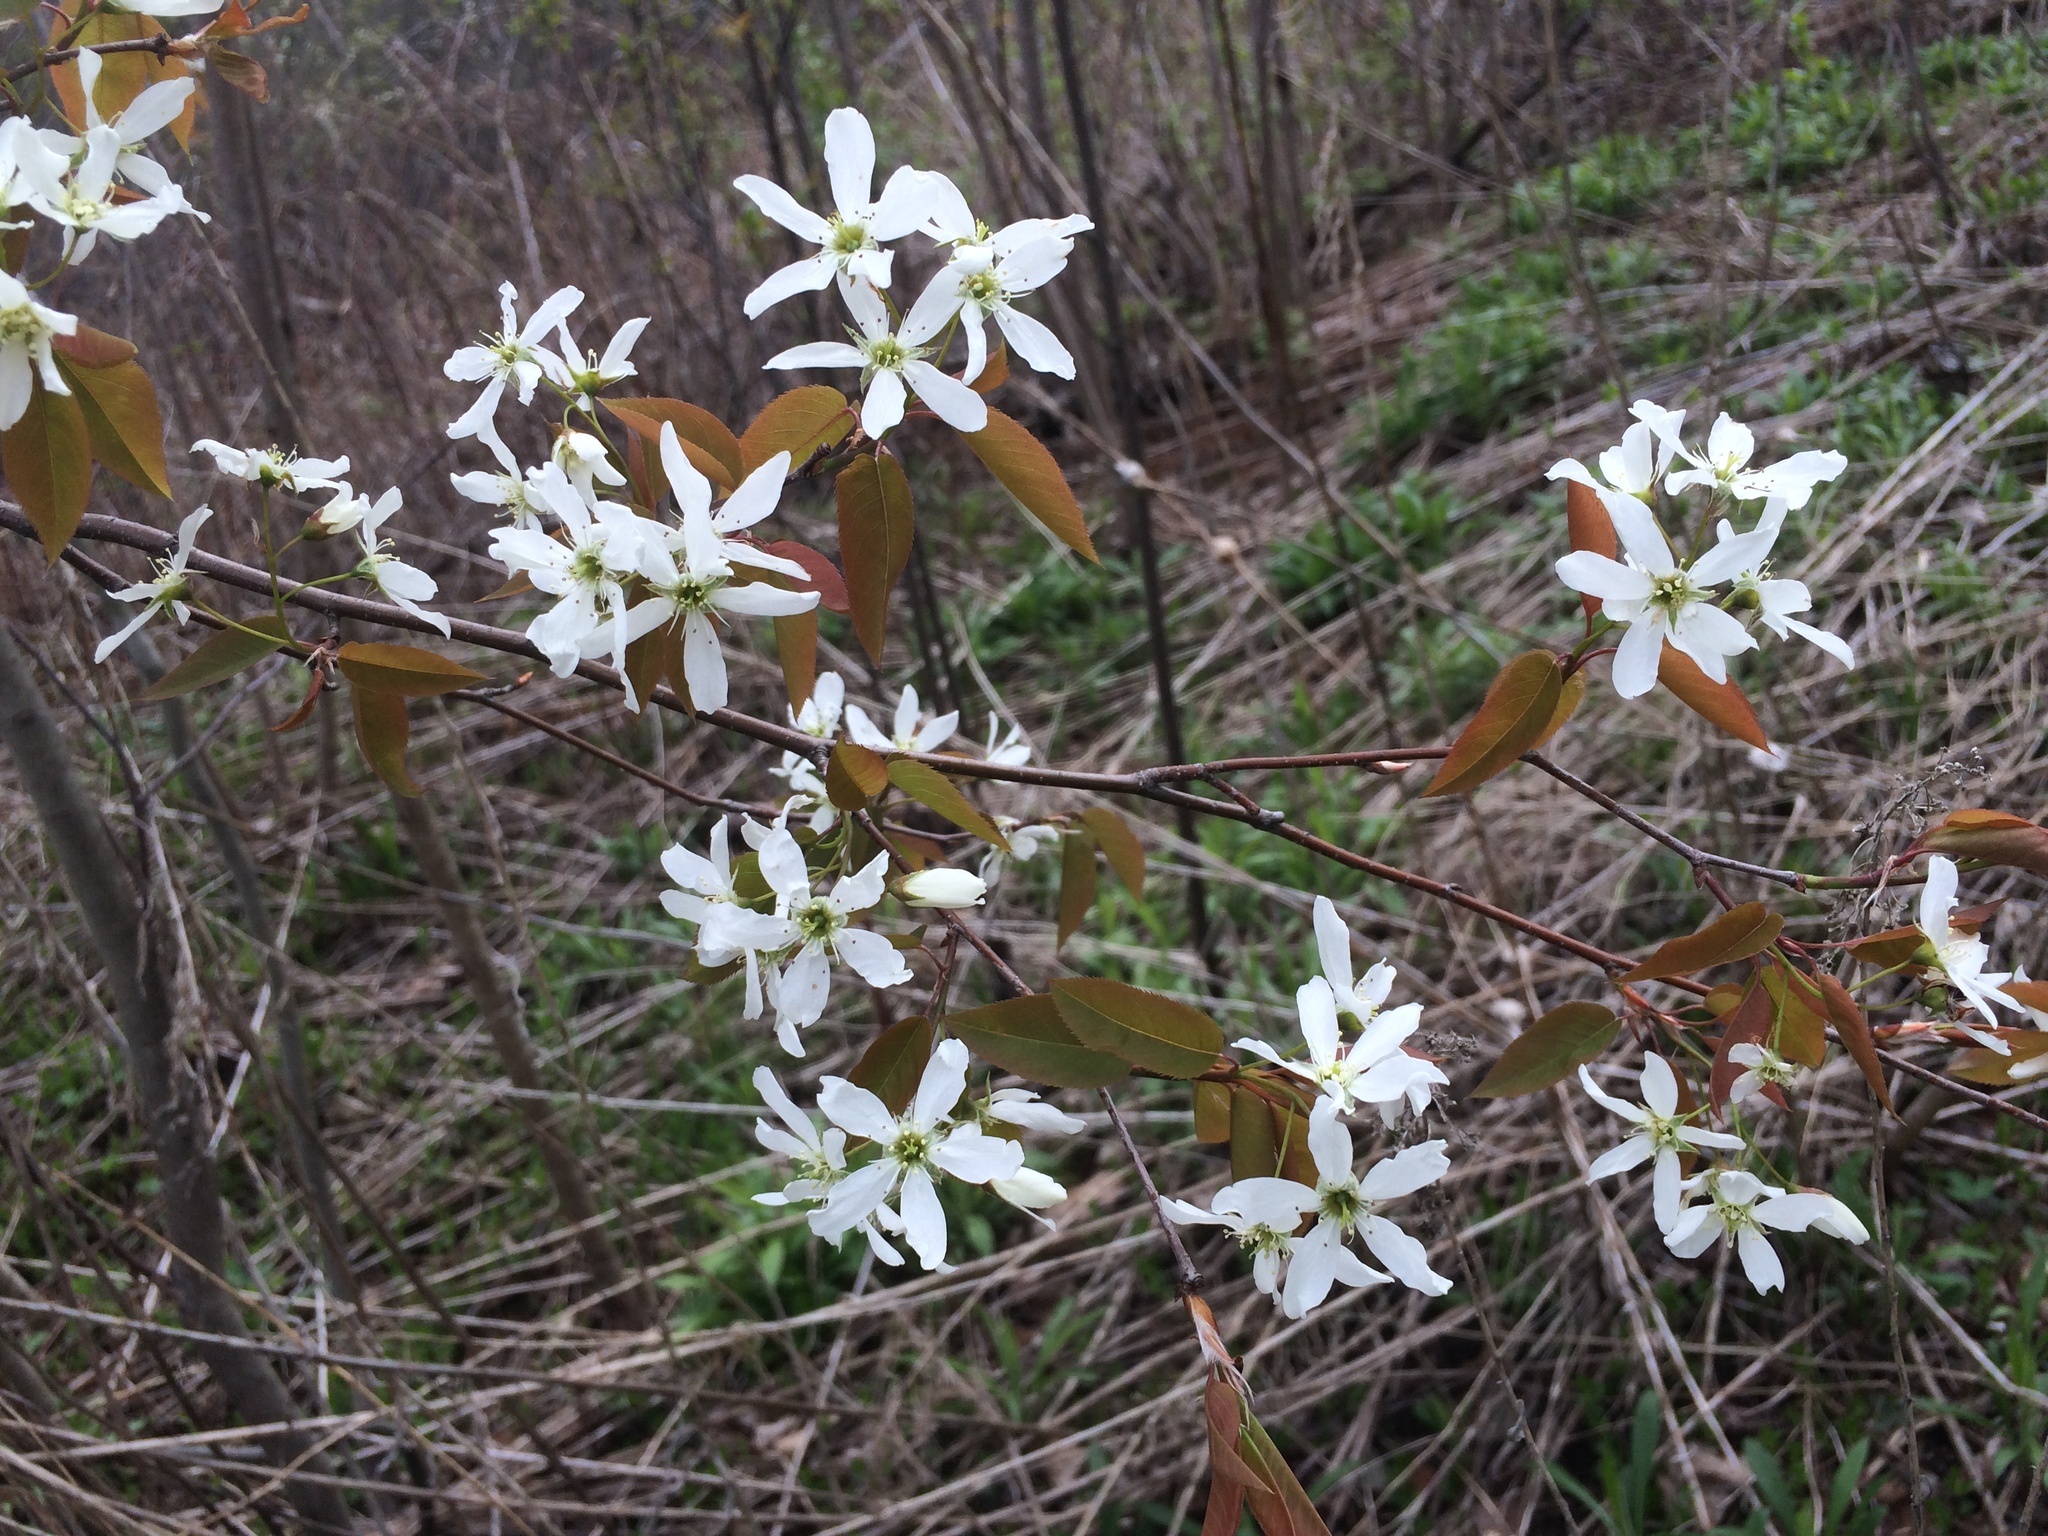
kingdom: Plantae
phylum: Tracheophyta
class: Magnoliopsida
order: Rosales
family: Rosaceae
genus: Amelanchier
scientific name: Amelanchier laevis
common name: Allegheny serviceberry
